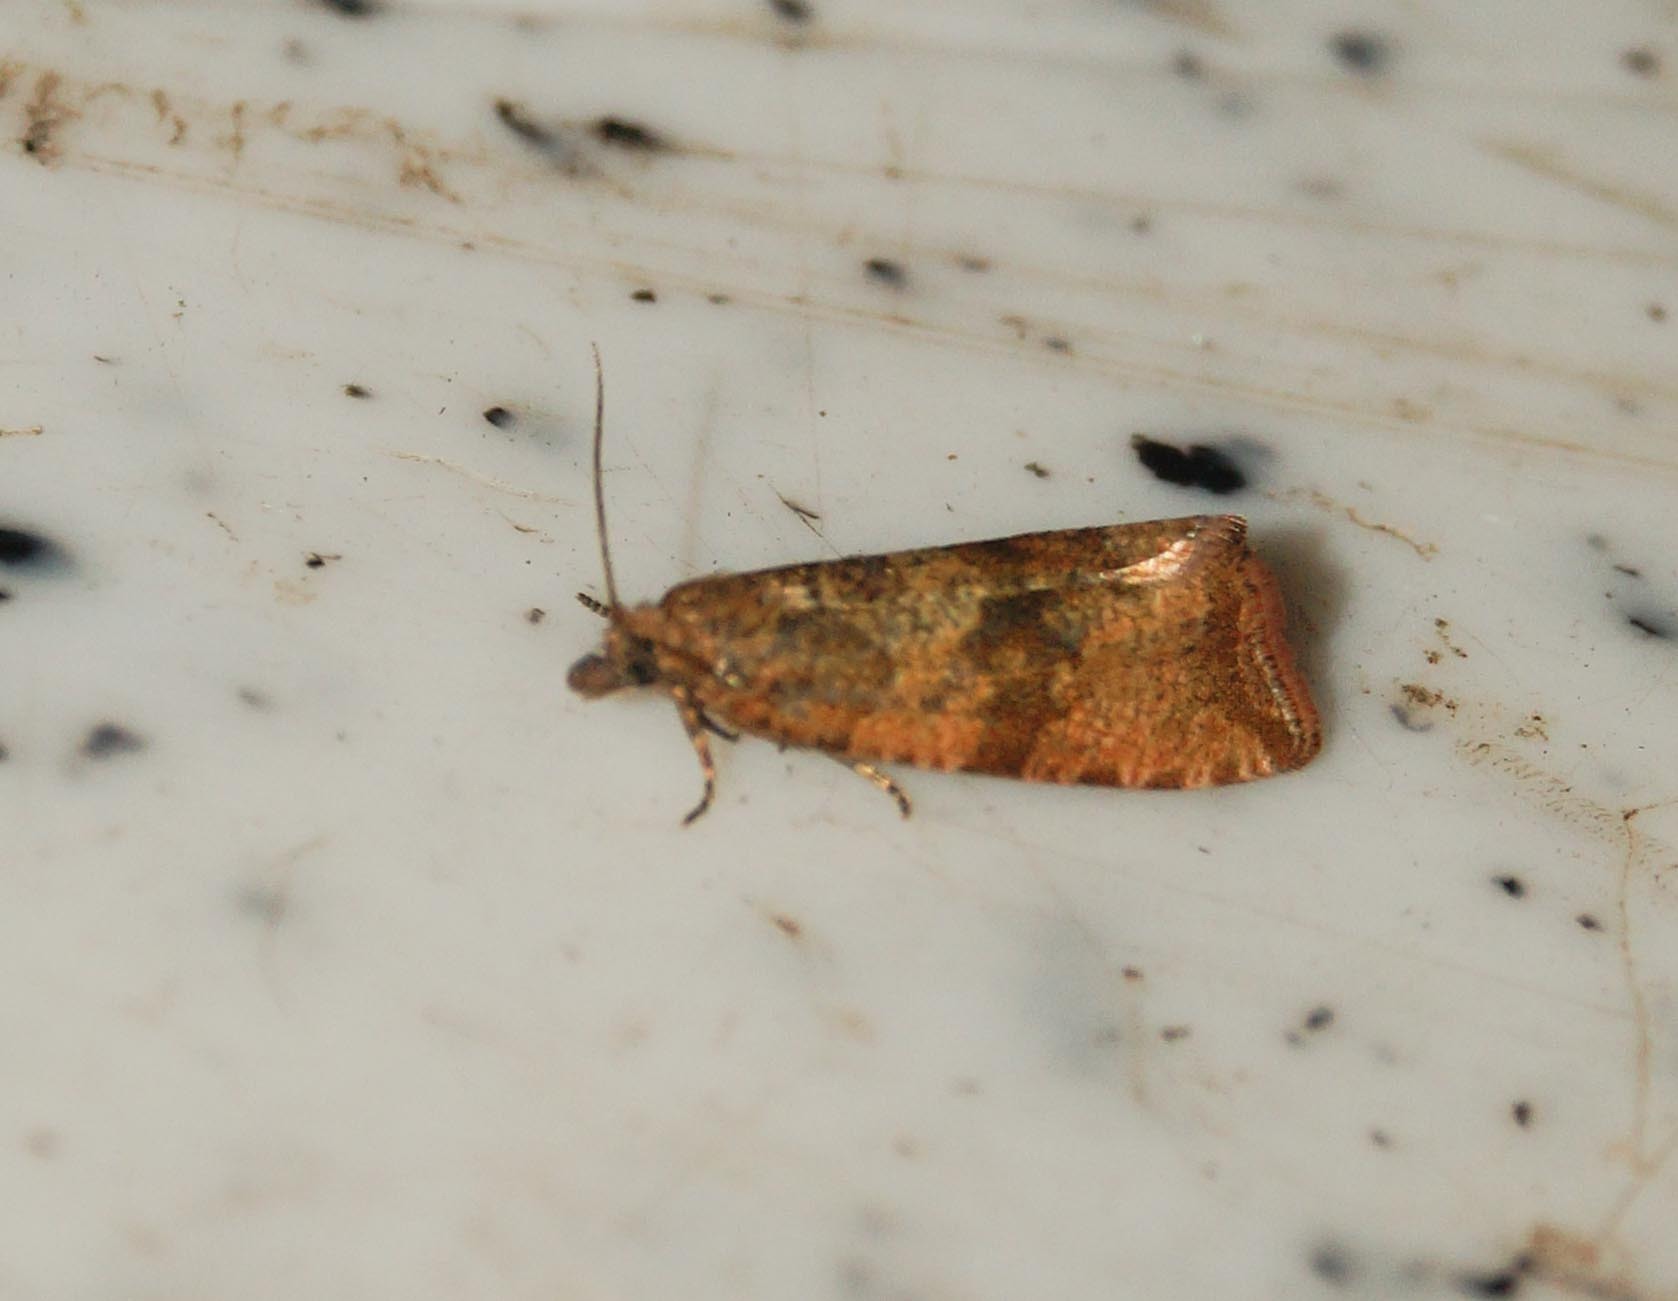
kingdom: Animalia
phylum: Arthropoda
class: Insecta
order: Lepidoptera
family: Tortricidae
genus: Celypha
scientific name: Celypha striana
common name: Barred marble
